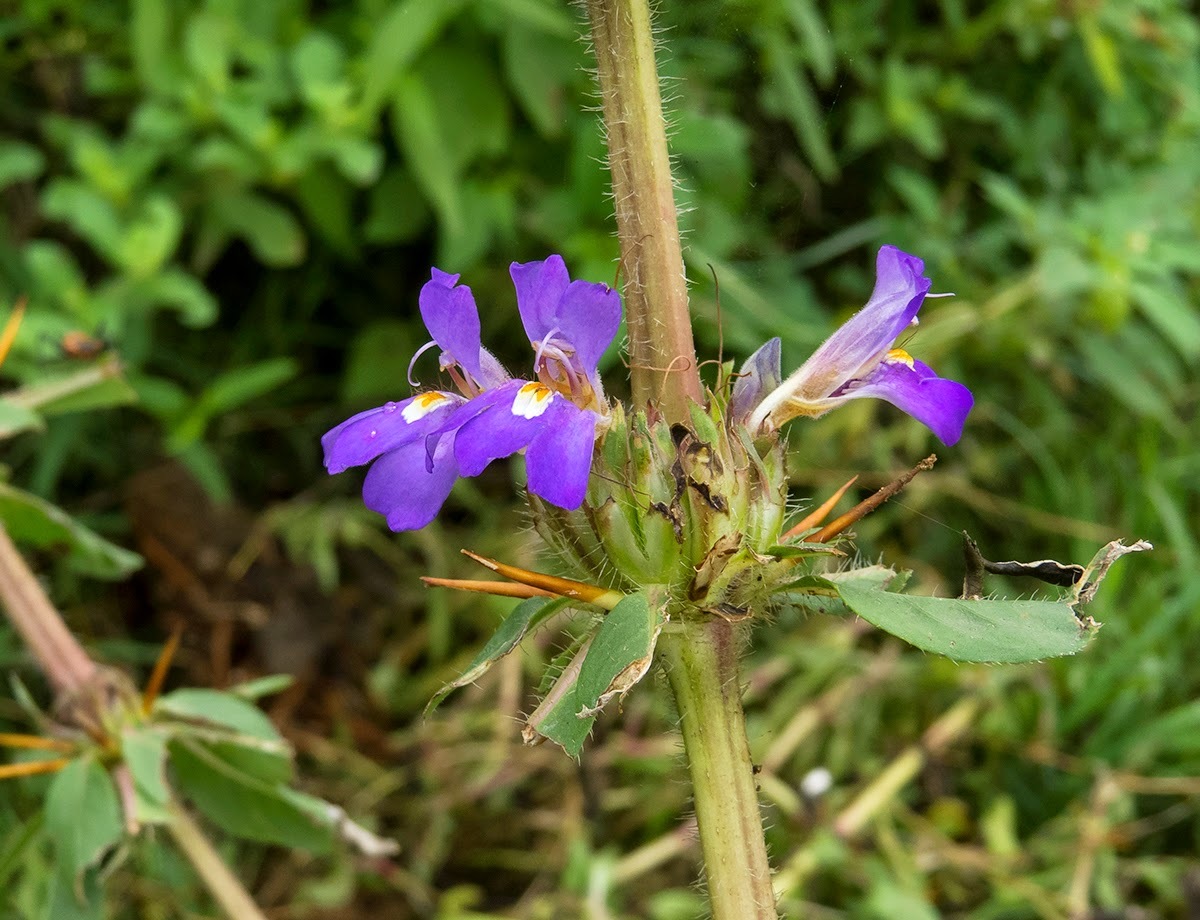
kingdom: Plantae
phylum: Tracheophyta
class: Magnoliopsida
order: Lamiales
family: Acanthaceae
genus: Hygrophila
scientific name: Hygrophila auriculata
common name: Hygrophila
